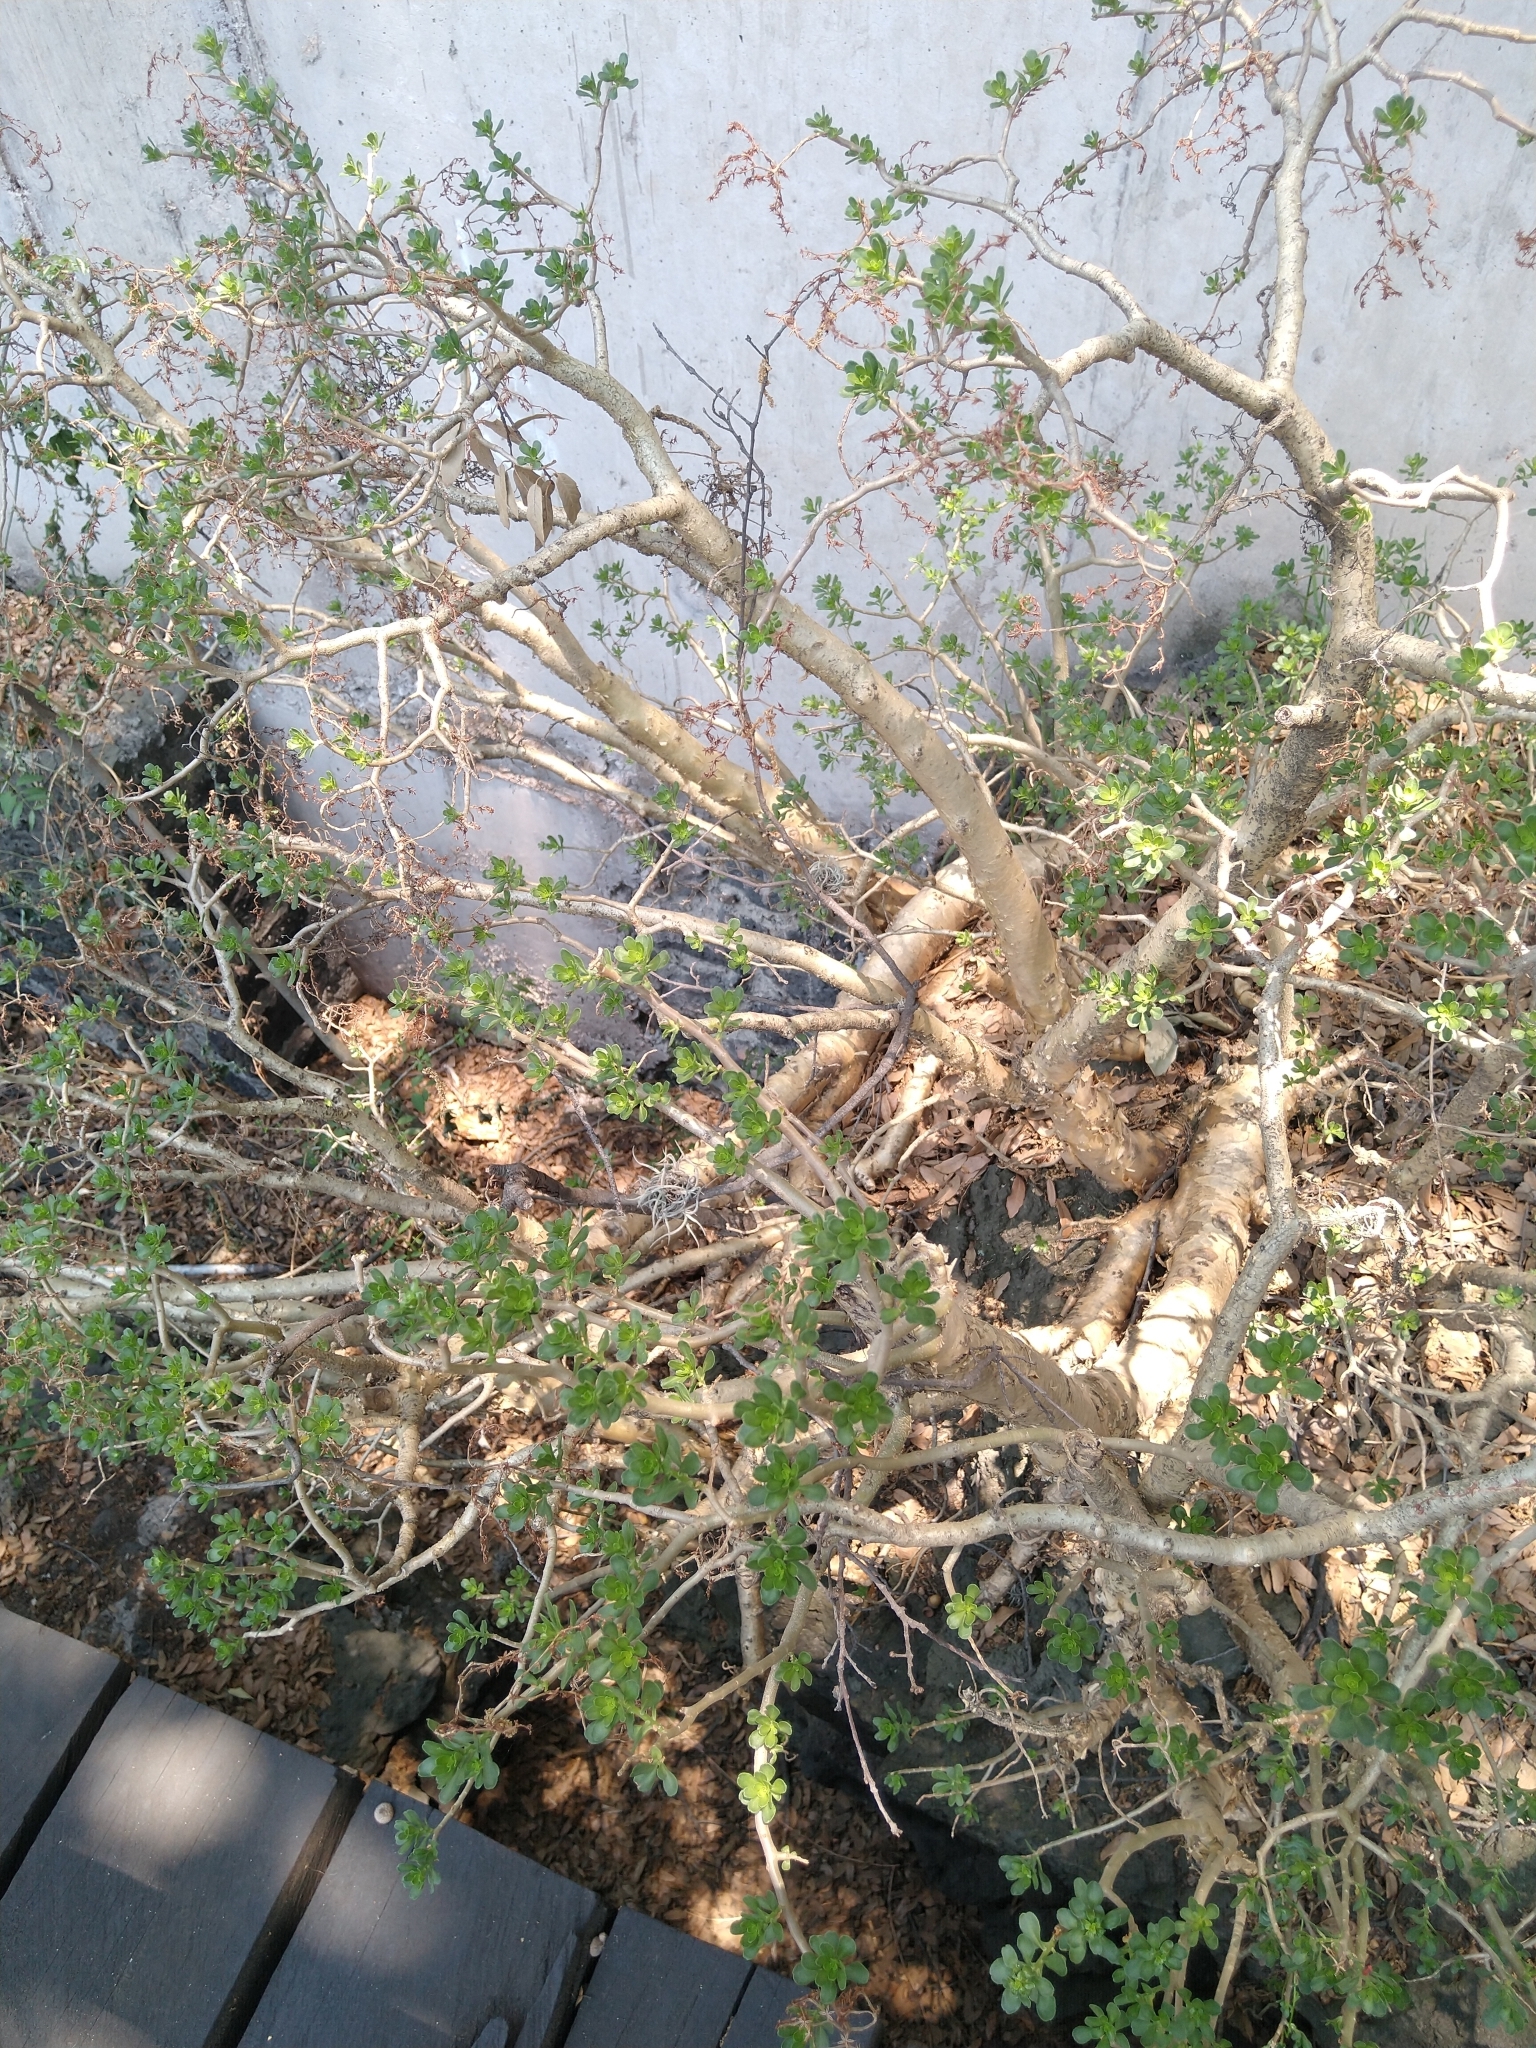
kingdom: Plantae
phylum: Tracheophyta
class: Magnoliopsida
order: Saxifragales
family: Crassulaceae
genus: Sedum
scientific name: Sedum oxypetalum
